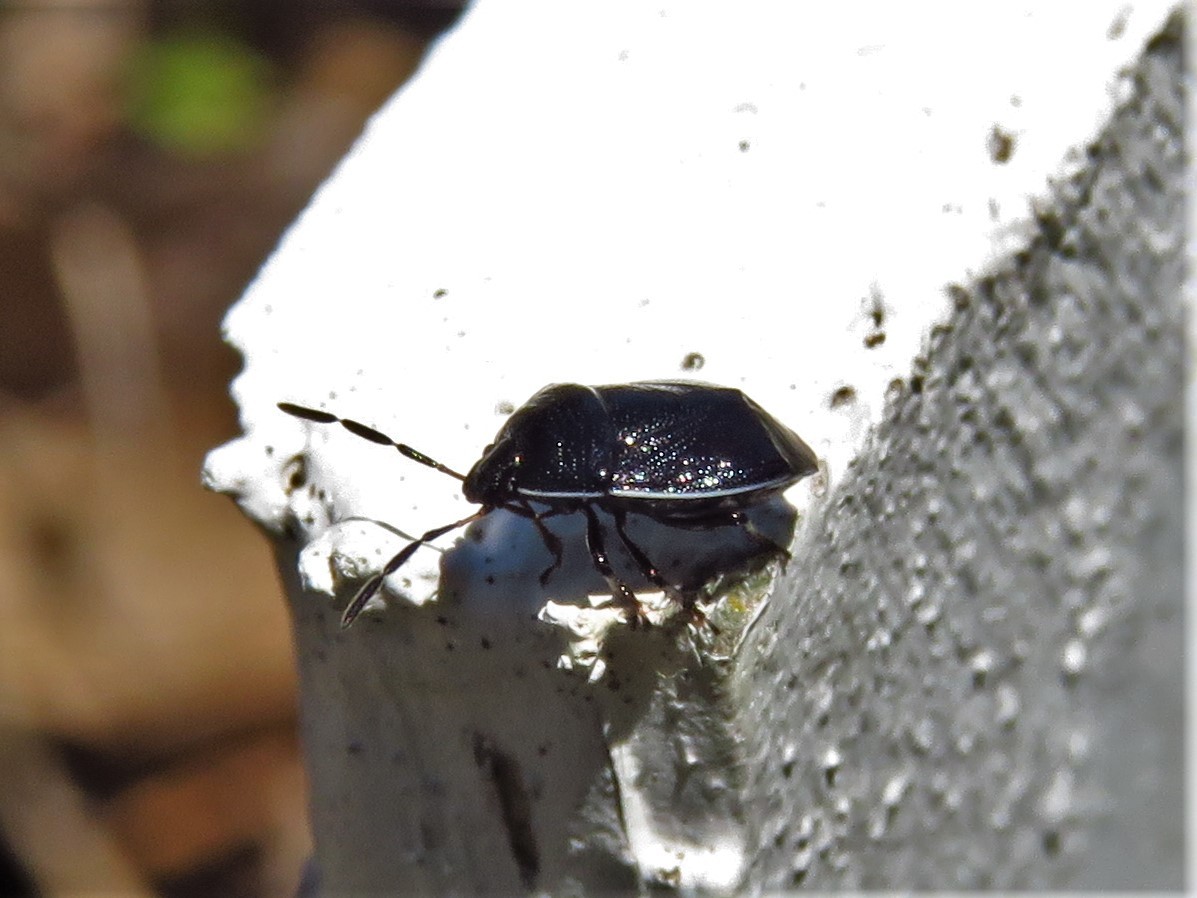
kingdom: Animalia
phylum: Arthropoda
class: Insecta
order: Hemiptera
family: Cydnidae
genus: Sehirus
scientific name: Sehirus cinctus
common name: White-margined burrower bug
